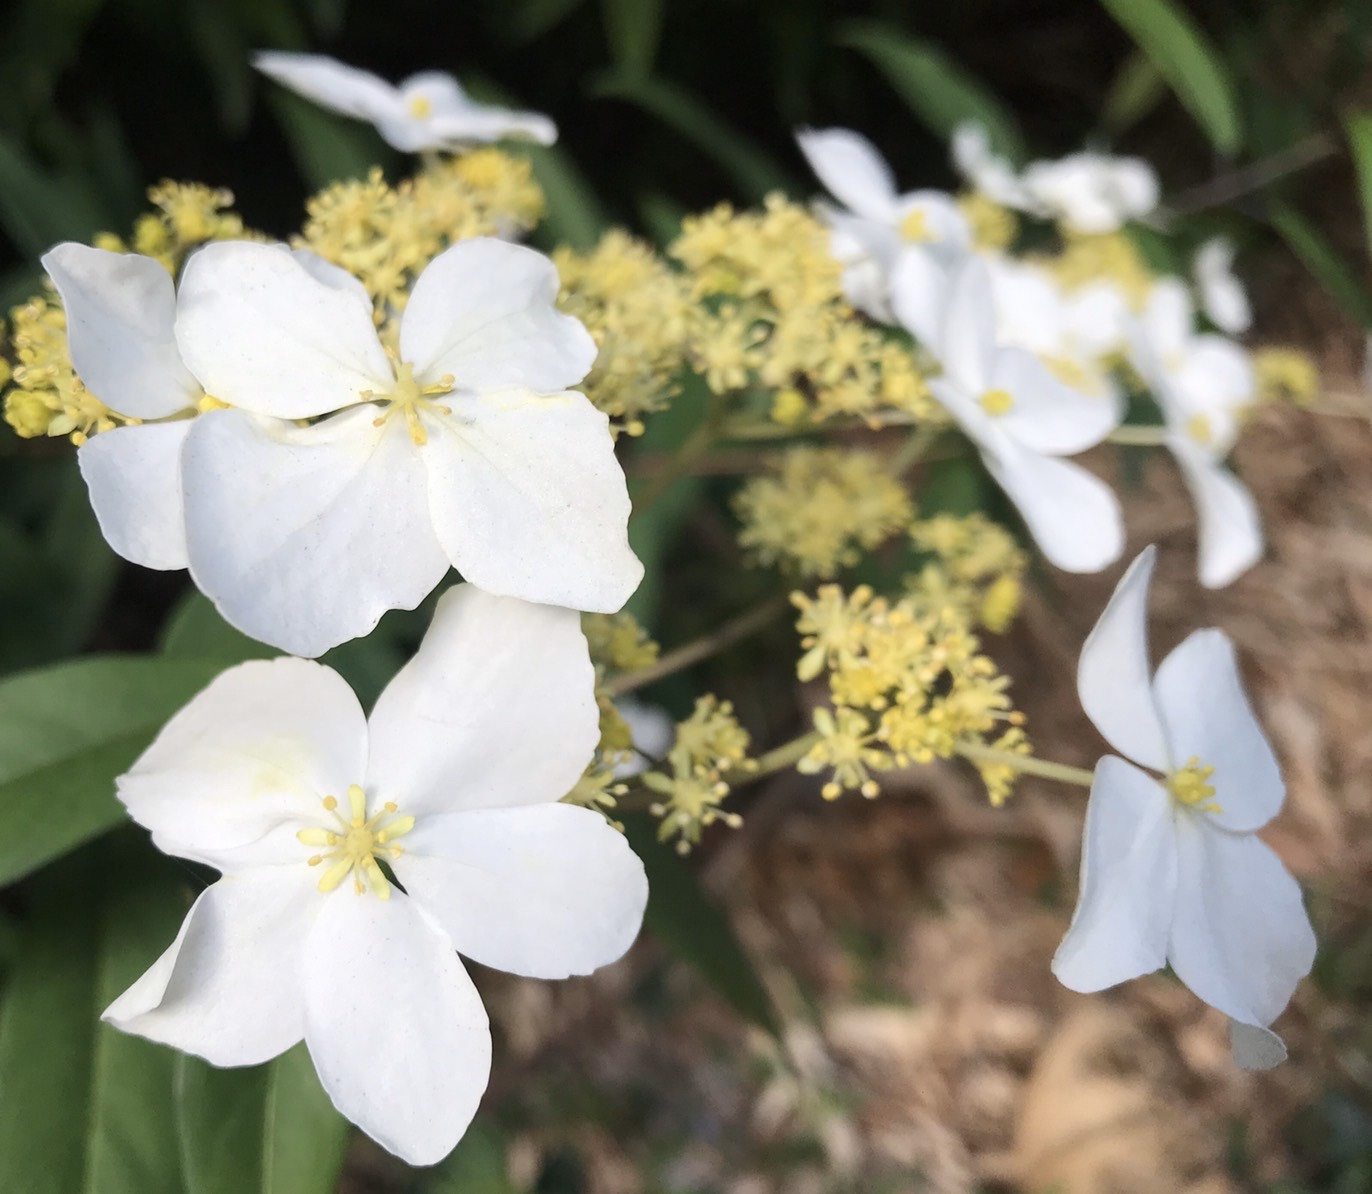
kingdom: Plantae
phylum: Tracheophyta
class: Magnoliopsida
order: Cornales
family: Hydrangeaceae
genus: Hydrangea
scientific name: Hydrangea chinensis
